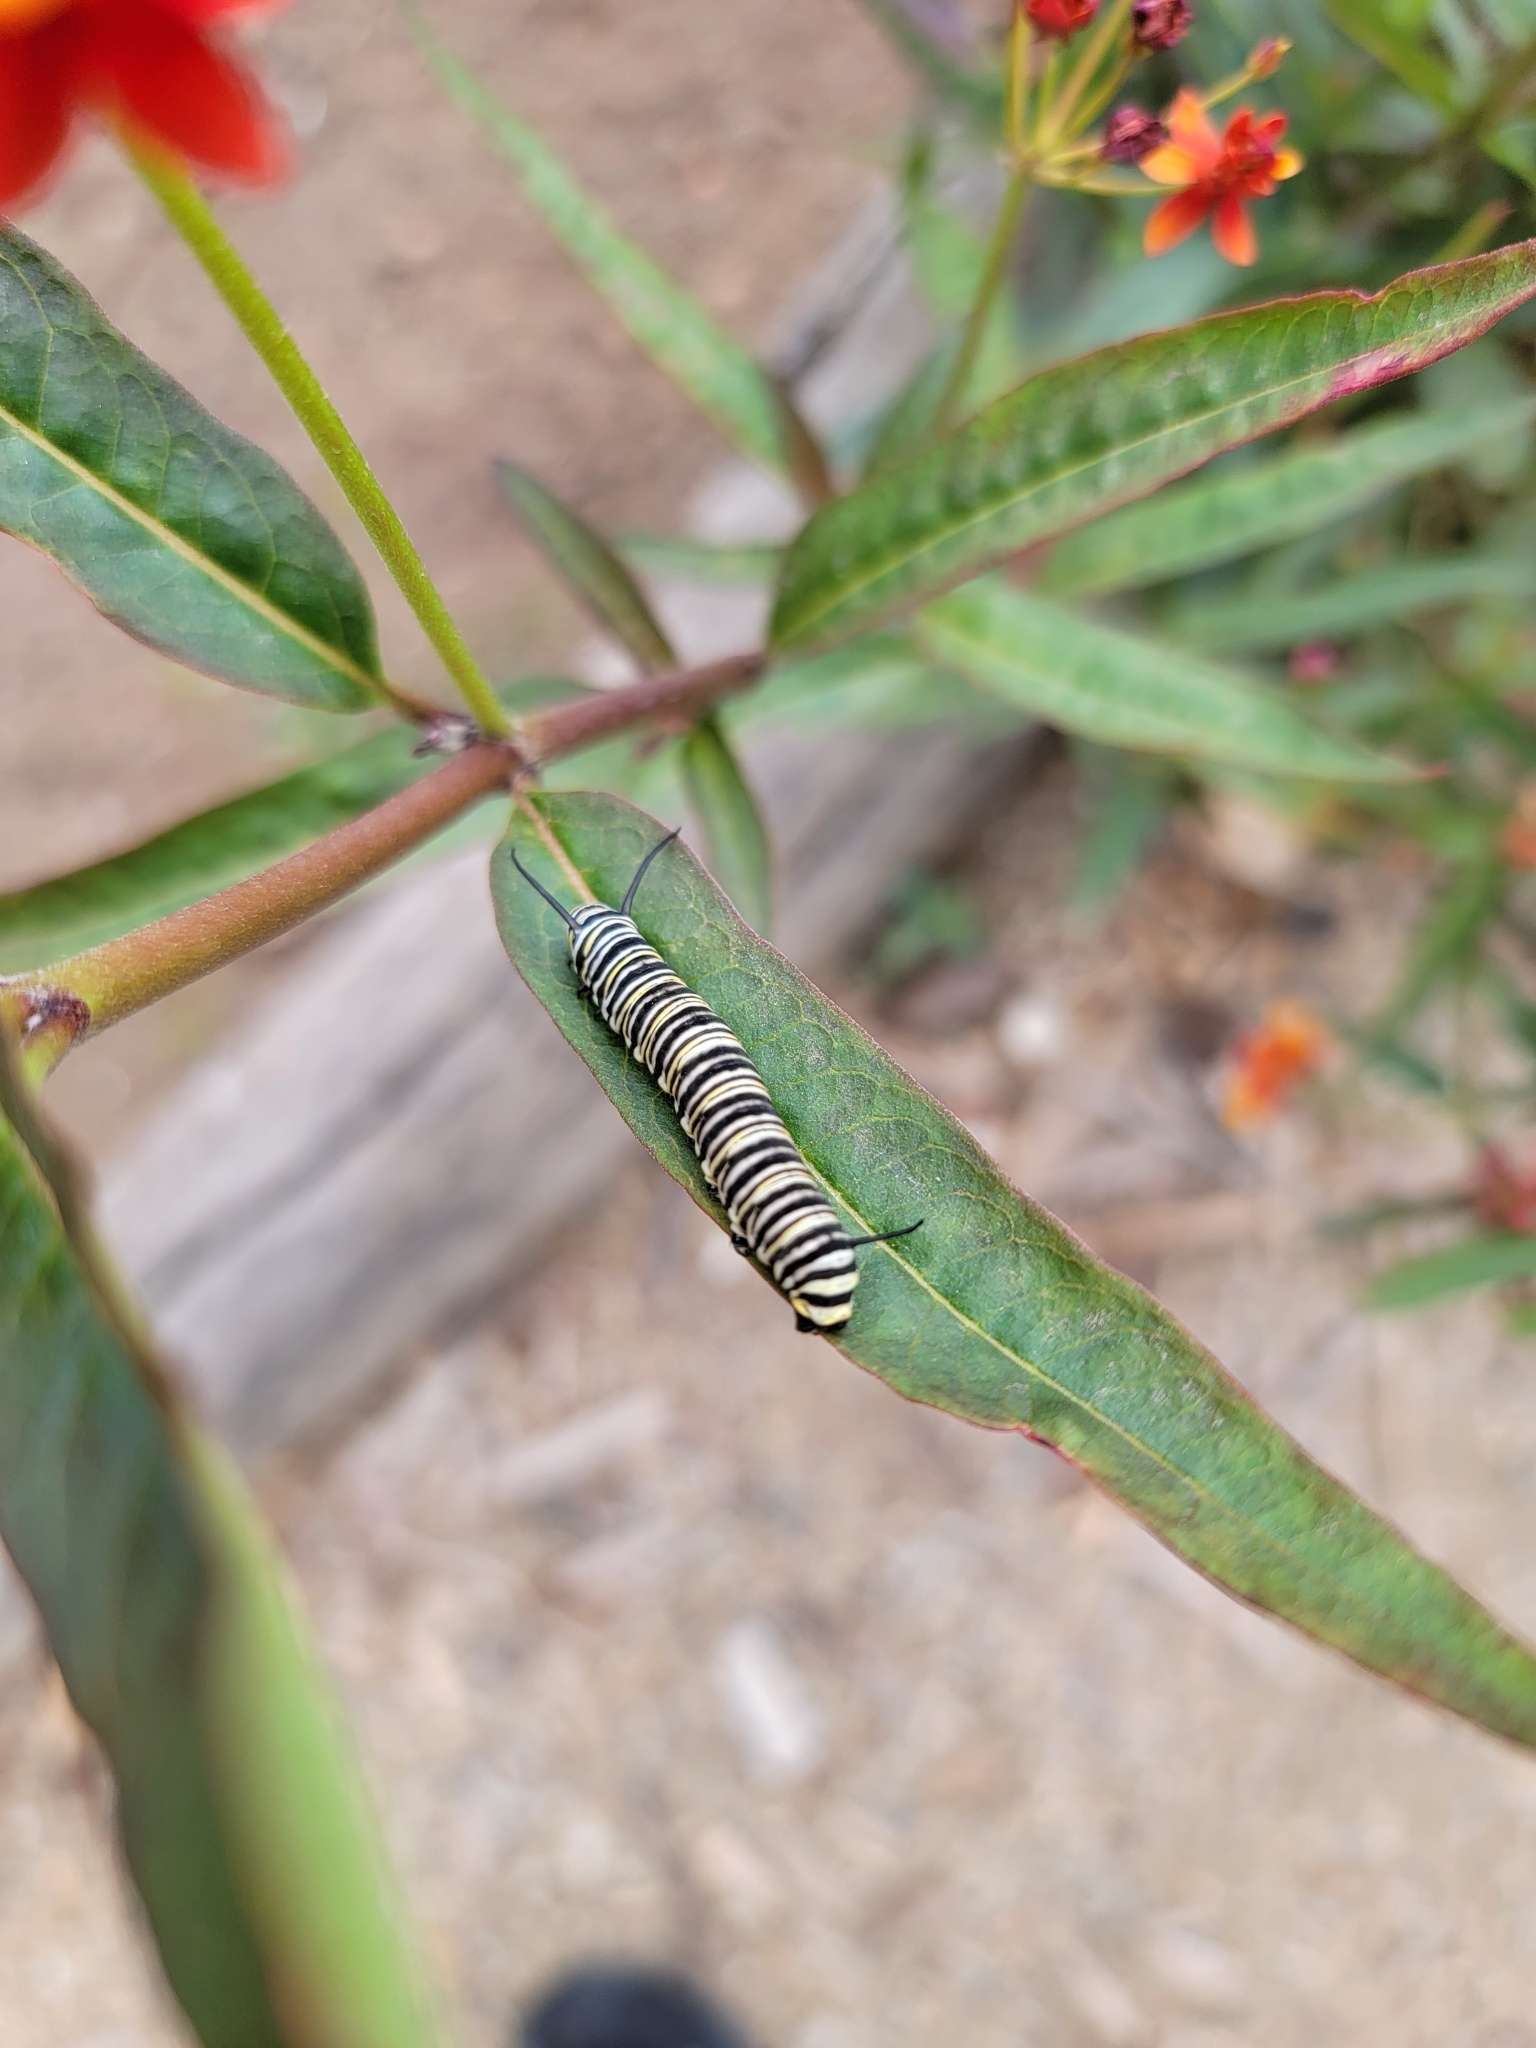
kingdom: Animalia
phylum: Arthropoda
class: Insecta
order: Lepidoptera
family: Nymphalidae
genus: Danaus
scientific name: Danaus plexippus
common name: Monarch
